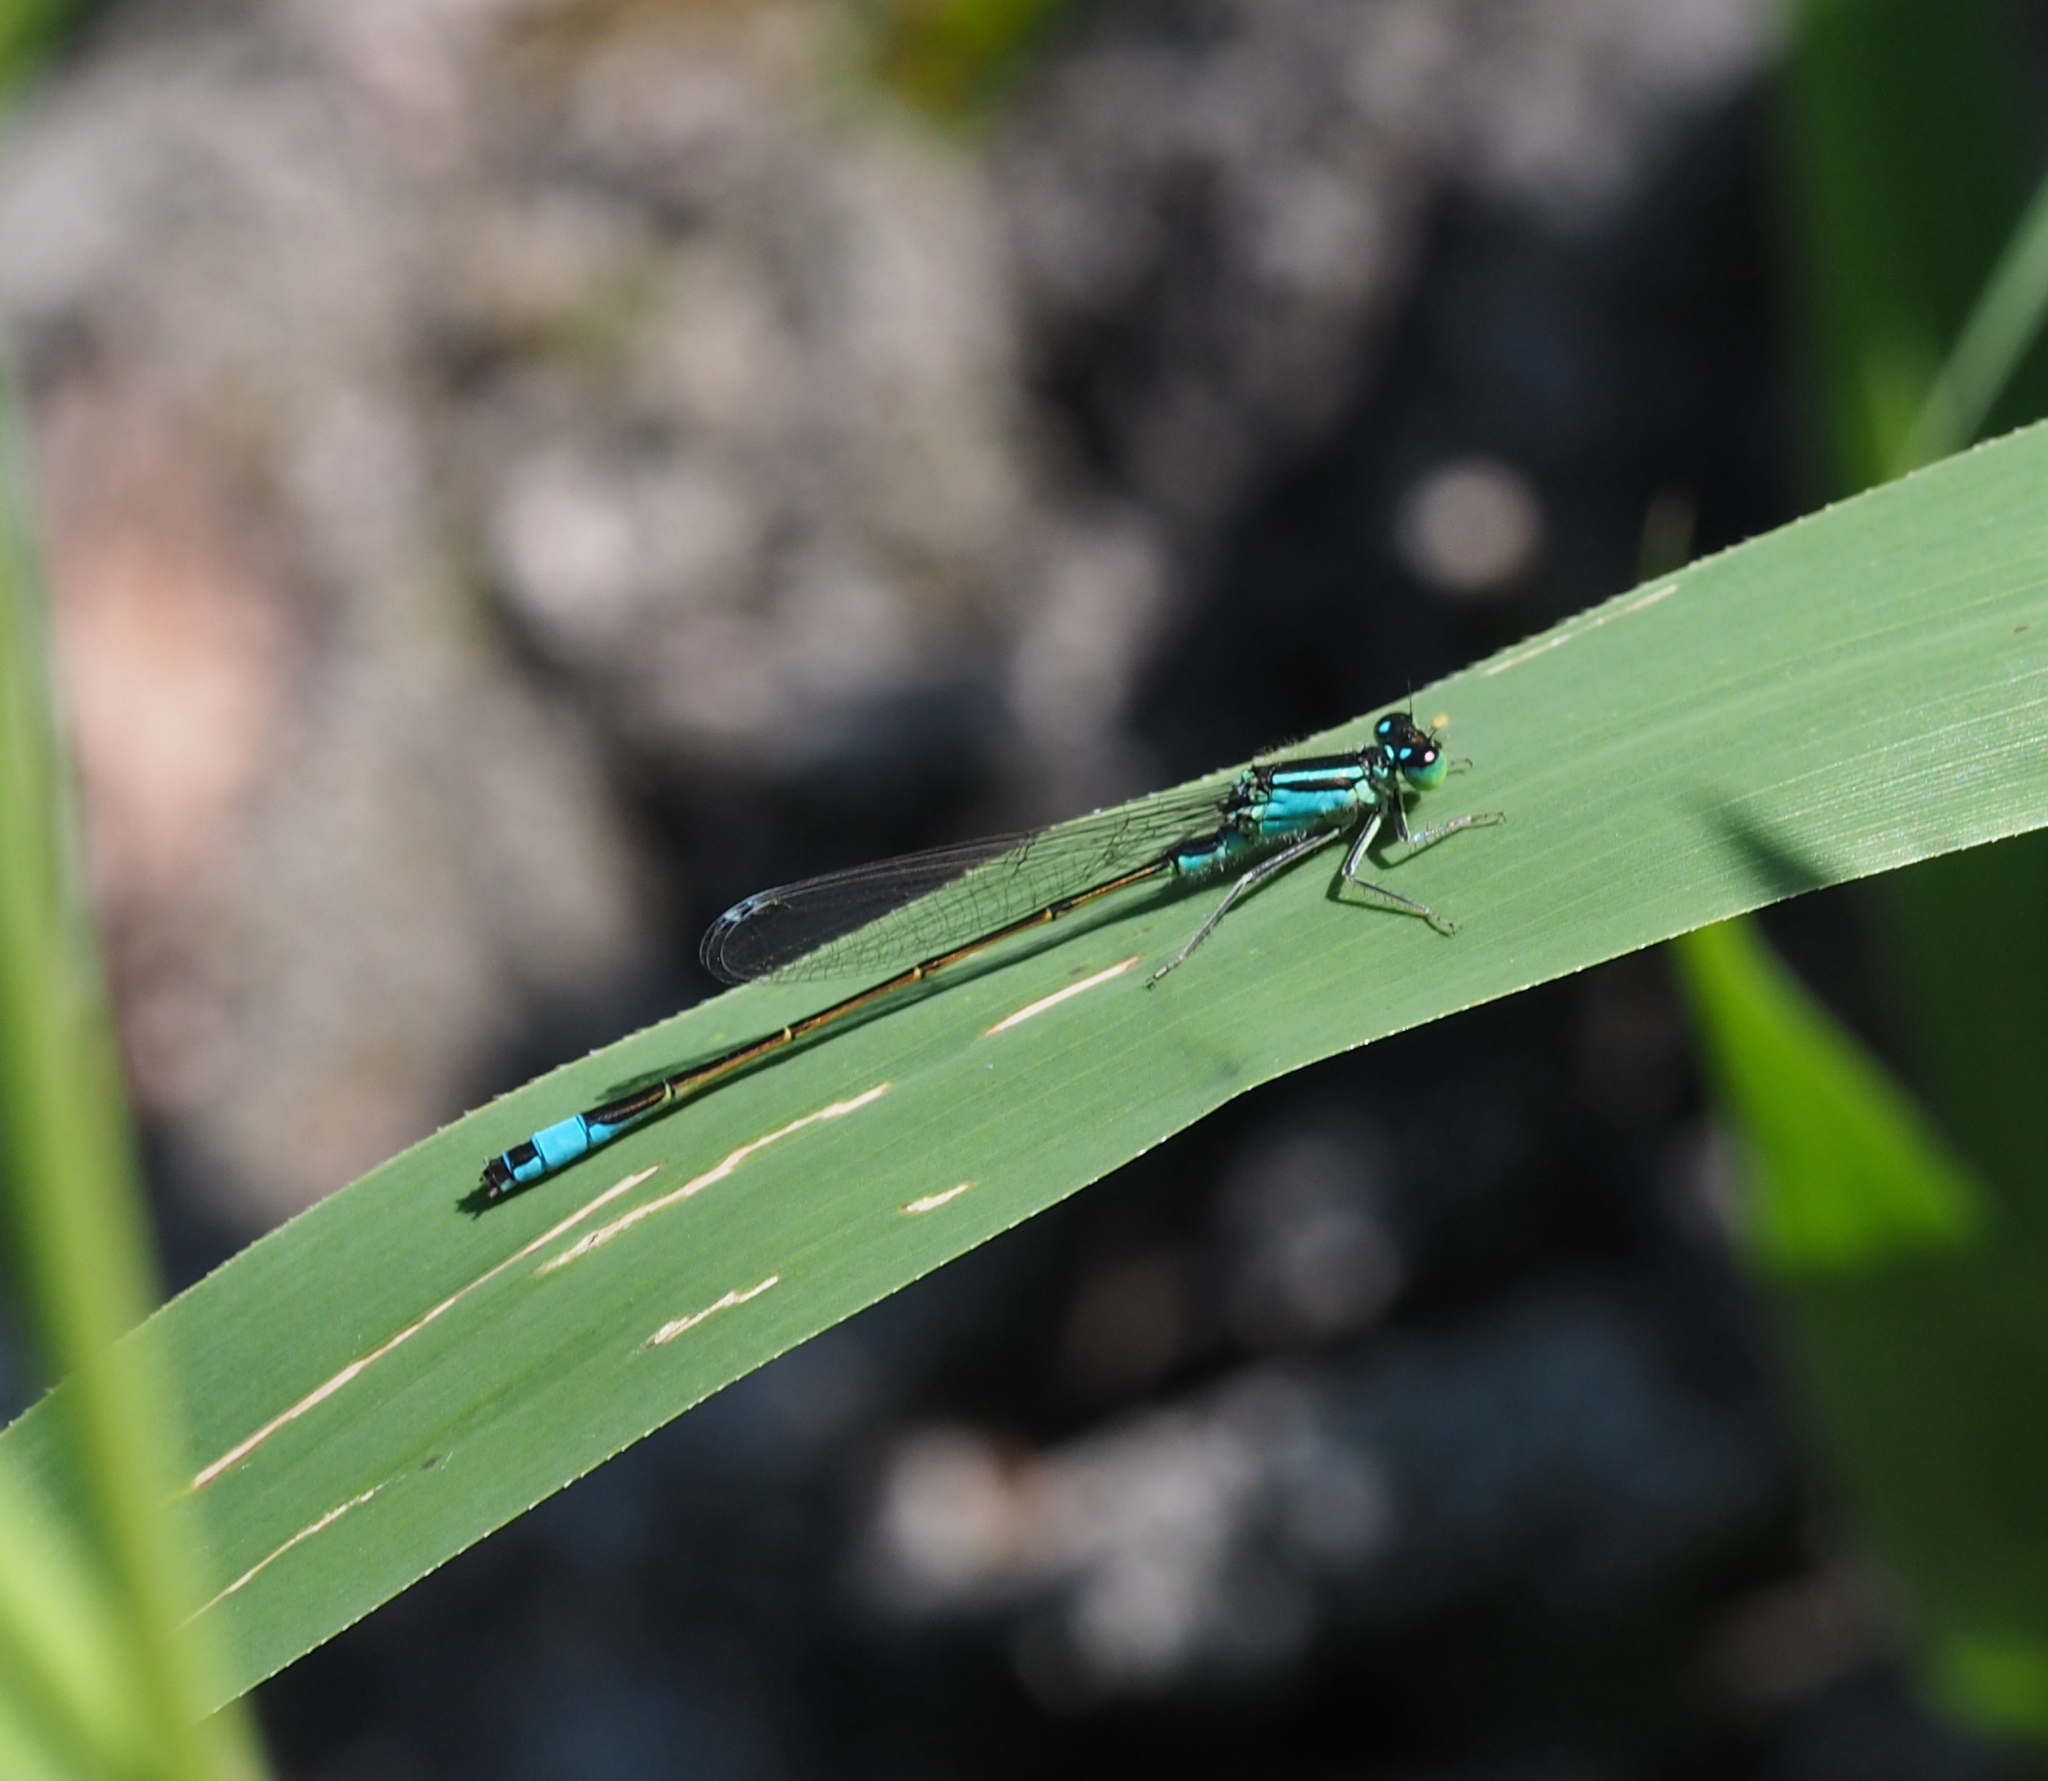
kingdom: Animalia
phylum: Arthropoda
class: Insecta
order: Odonata
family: Coenagrionidae
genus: Ischnura
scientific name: Ischnura elegans
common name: Blue-tailed damselfly
